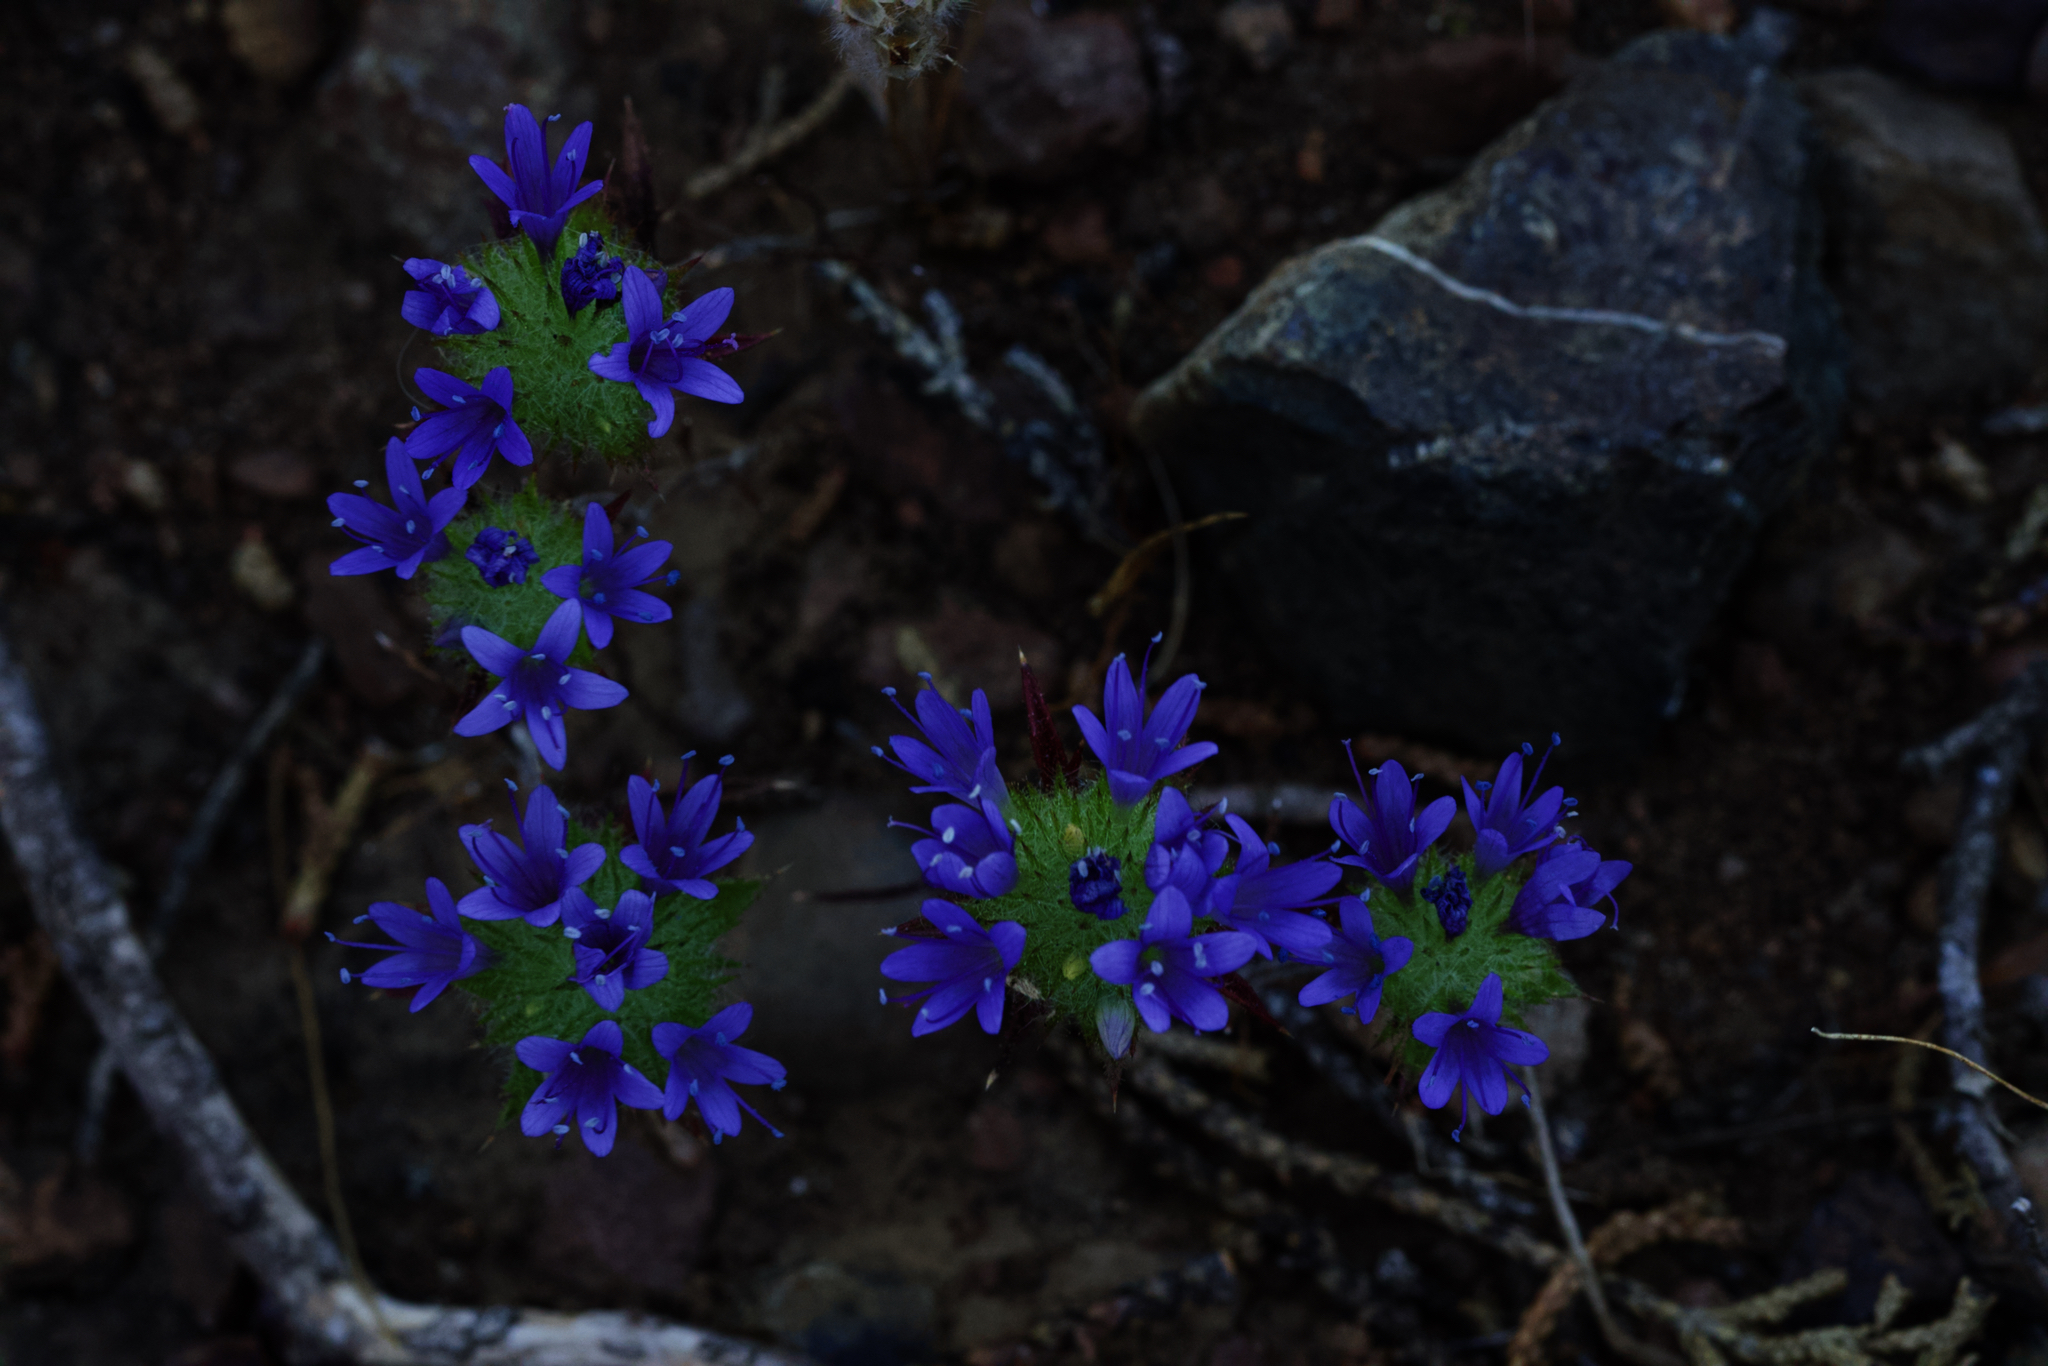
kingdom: Plantae
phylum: Tracheophyta
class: Magnoliopsida
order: Ericales
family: Polemoniaceae
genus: Navarretia
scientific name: Navarretia heterodoxa
